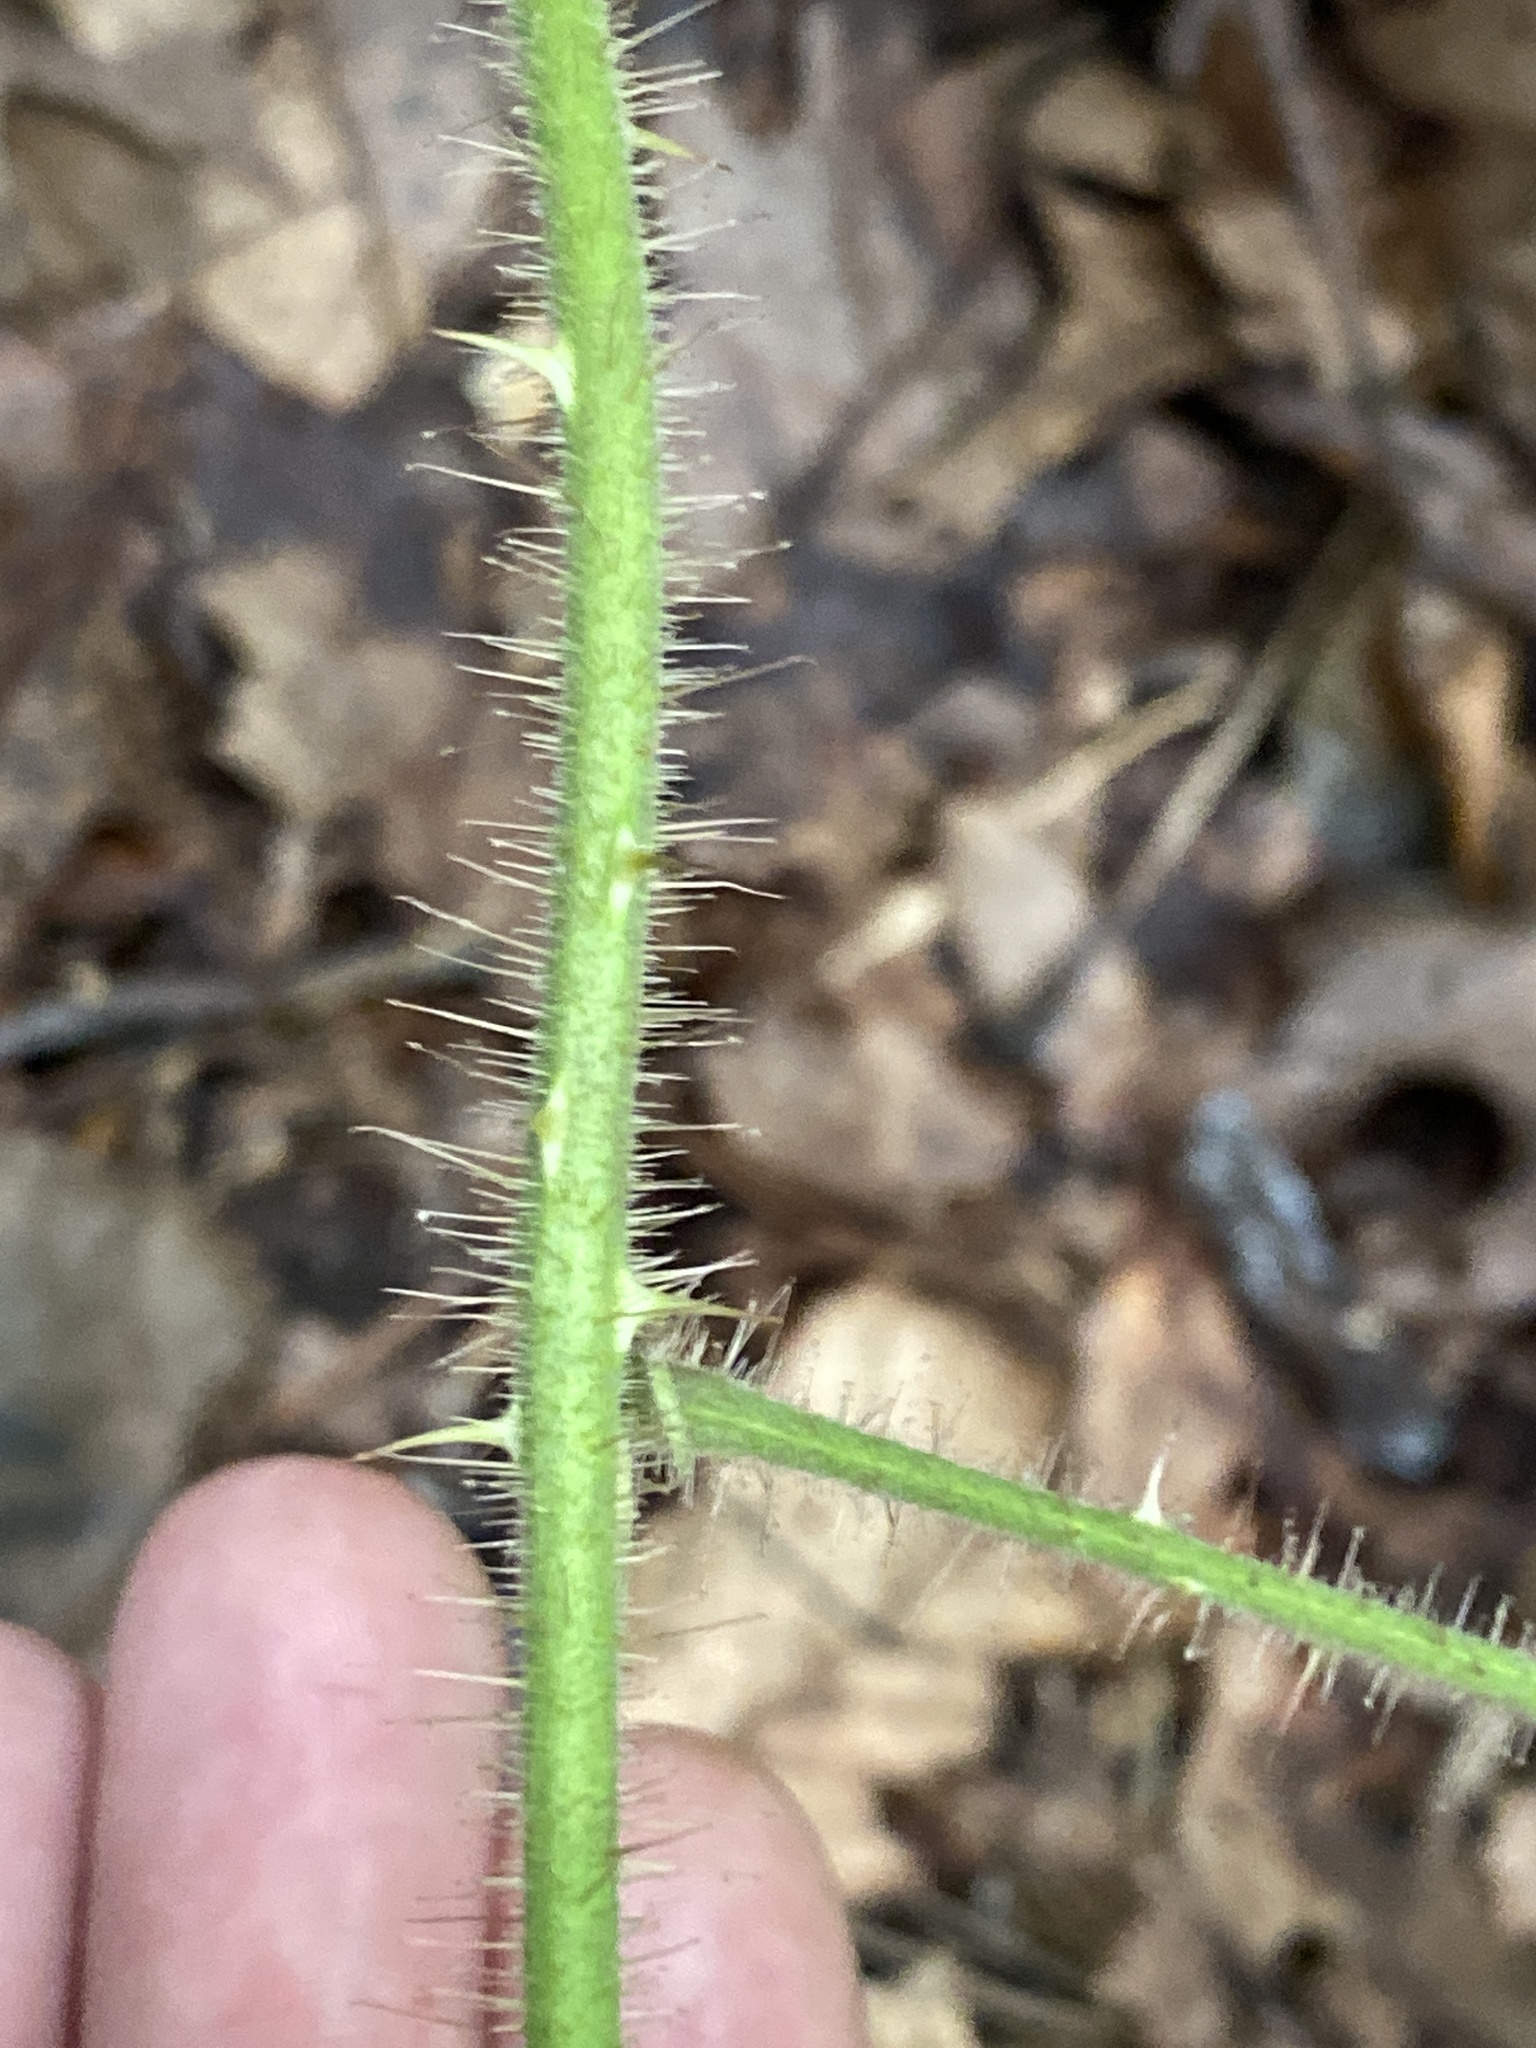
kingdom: Plantae
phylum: Tracheophyta
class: Magnoliopsida
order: Rosales
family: Rosaceae
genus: Rubus
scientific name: Rubus phoenicolasius
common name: Japanese wineberry
